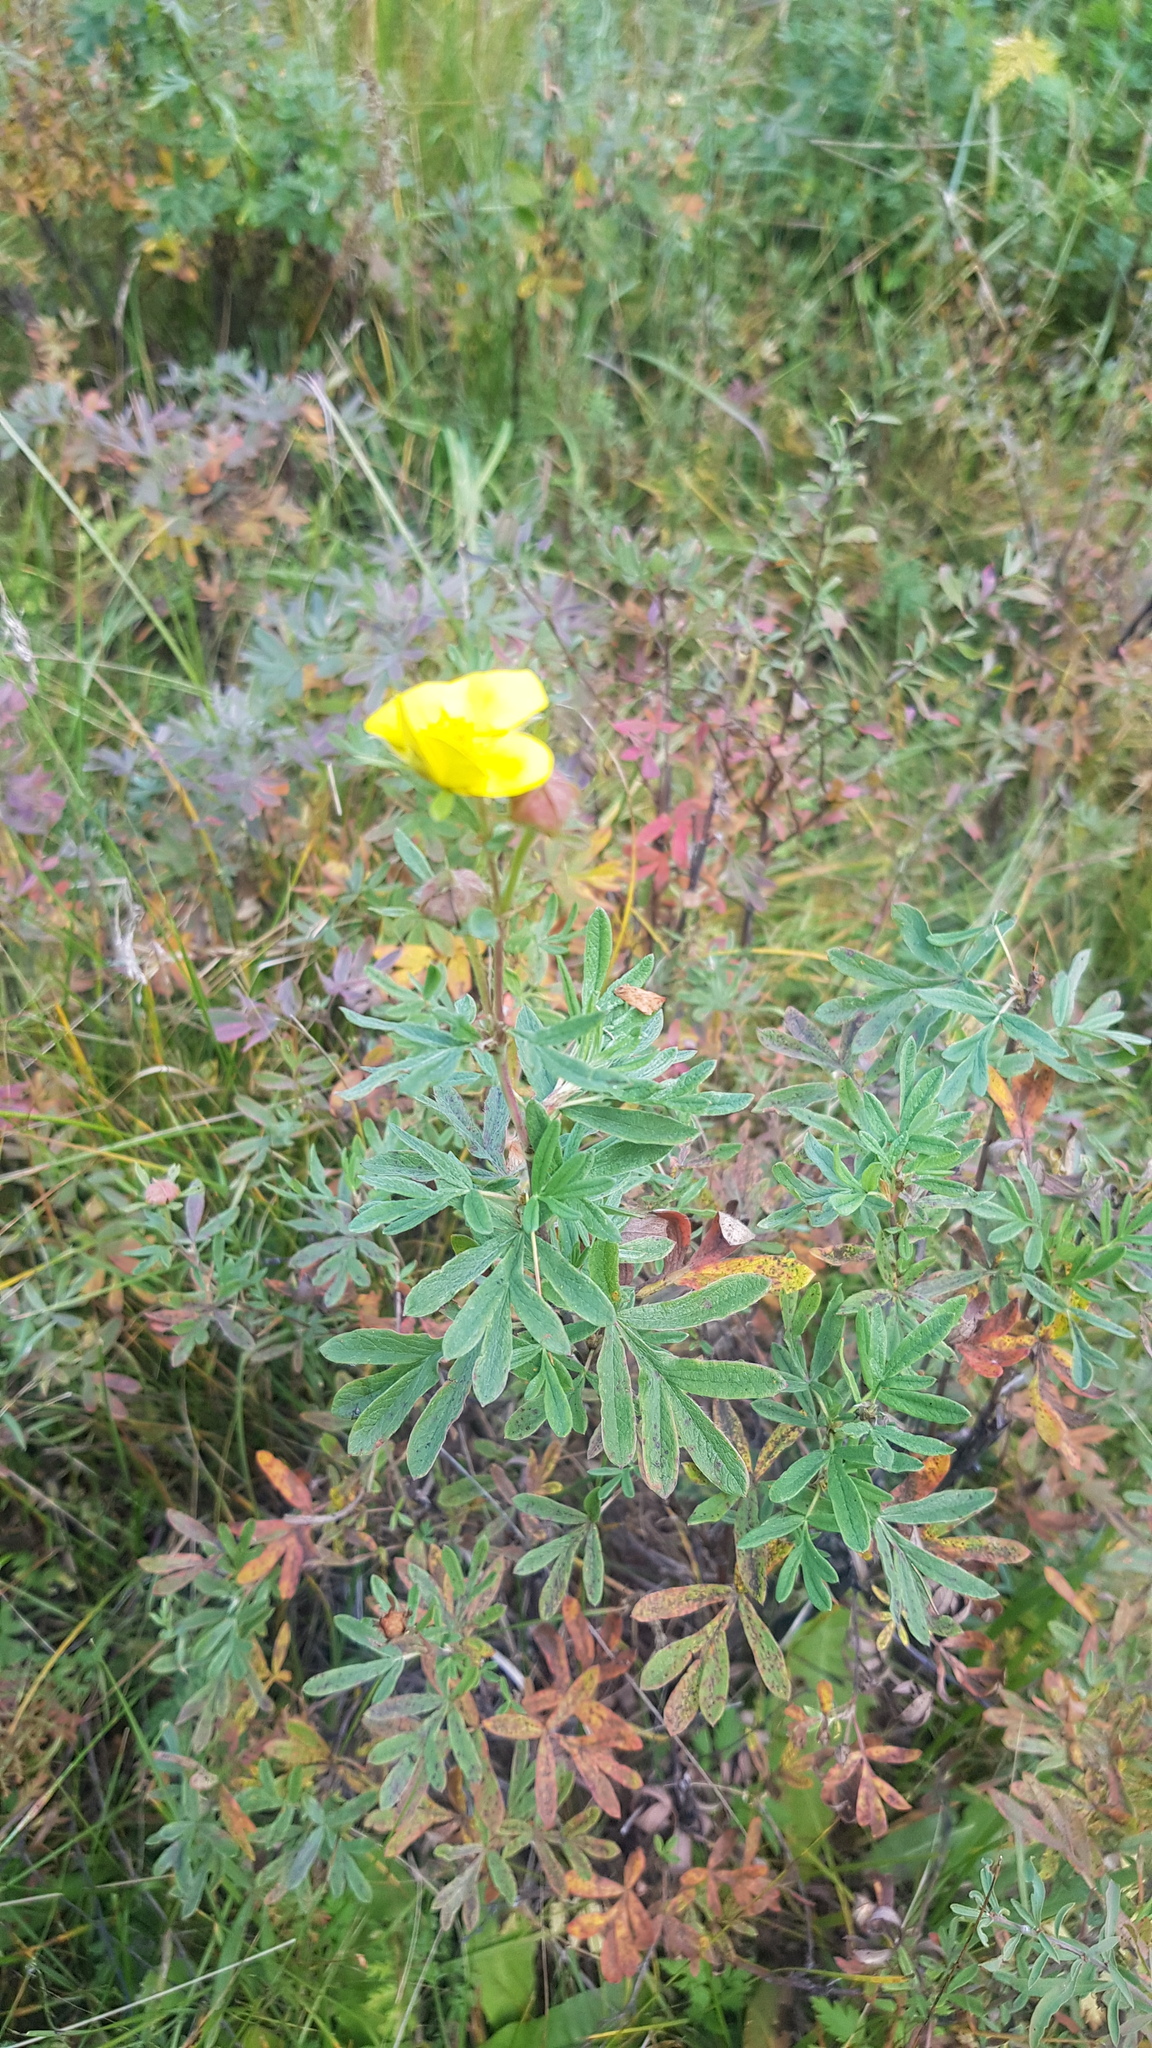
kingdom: Plantae
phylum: Tracheophyta
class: Magnoliopsida
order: Rosales
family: Rosaceae
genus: Dasiphora
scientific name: Dasiphora fruticosa
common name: Shrubby cinquefoil
